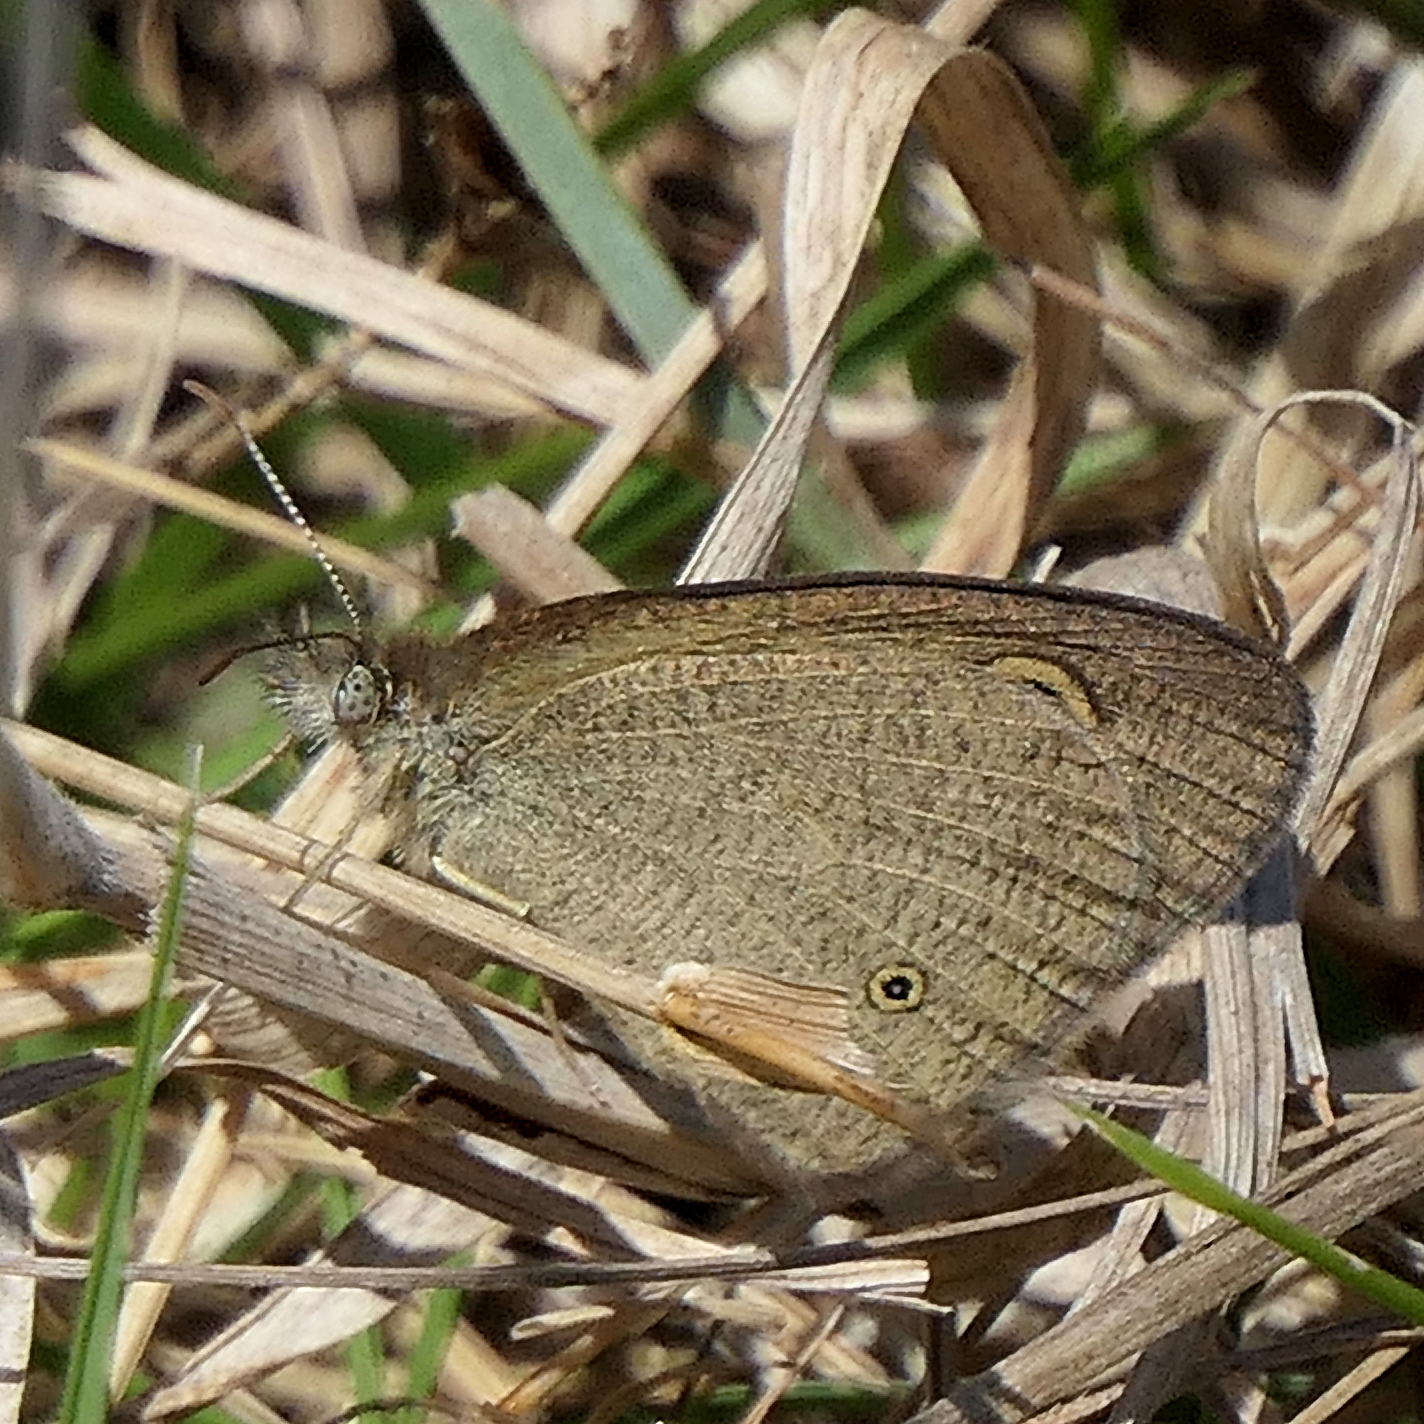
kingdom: Animalia
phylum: Arthropoda
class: Insecta
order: Lepidoptera
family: Nymphalidae
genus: Ypthima
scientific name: Ypthima arctous
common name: Dusky knight
